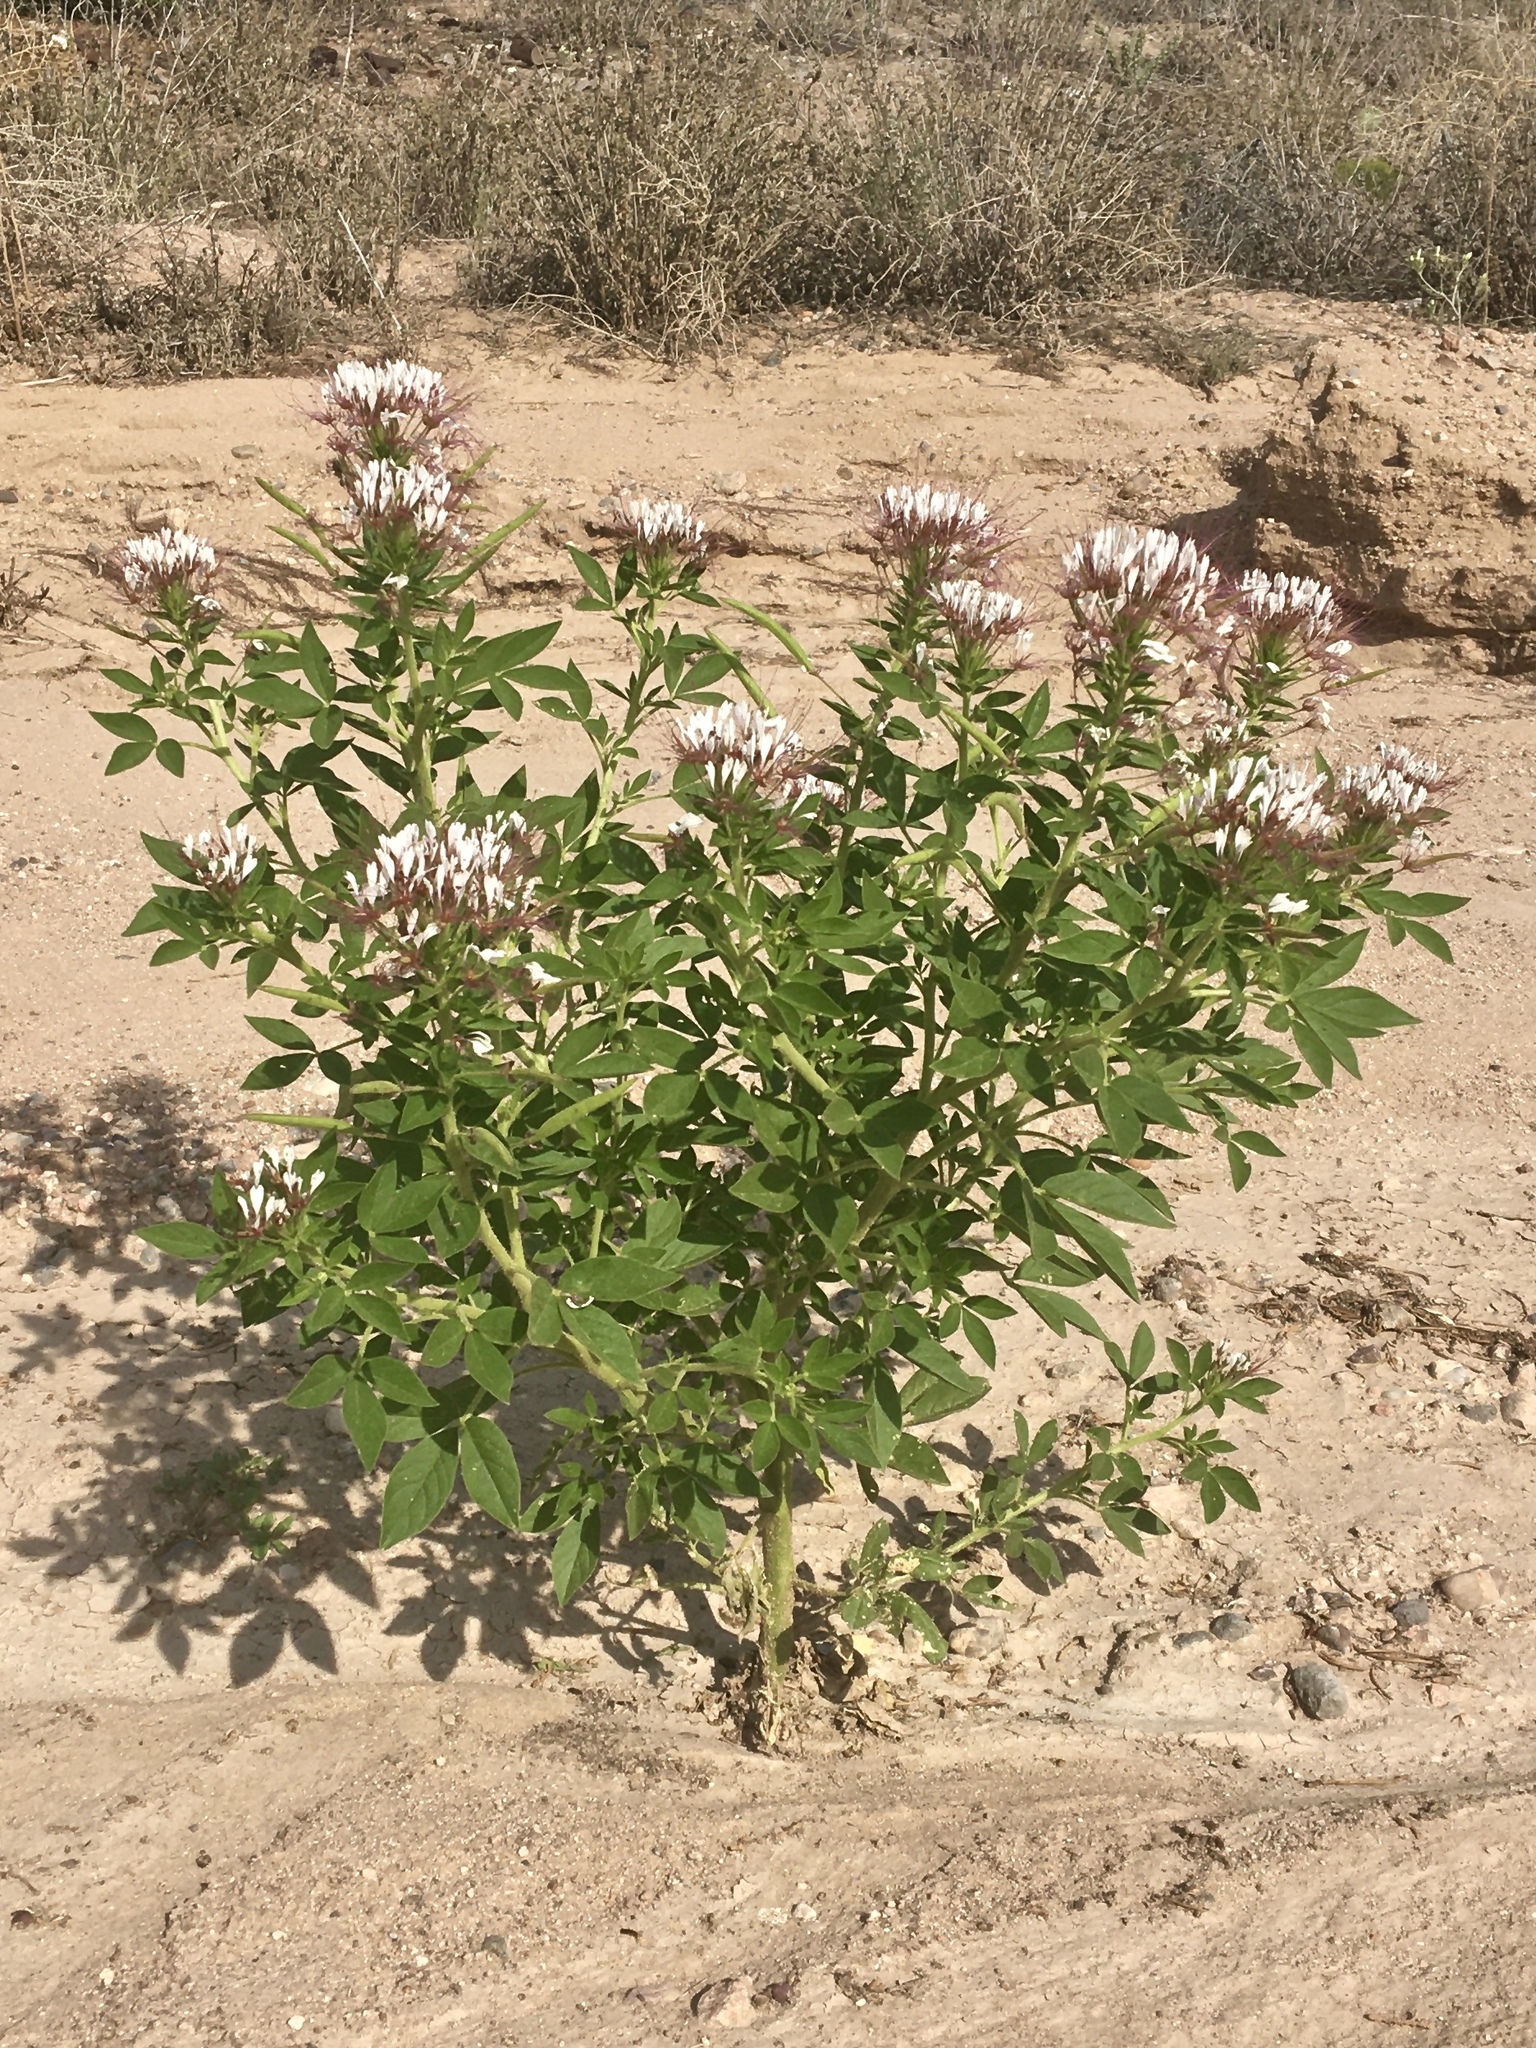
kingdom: Plantae
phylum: Tracheophyta
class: Magnoliopsida
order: Brassicales
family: Cleomaceae
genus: Polanisia
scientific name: Polanisia dodecandra
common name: Clammyweed
